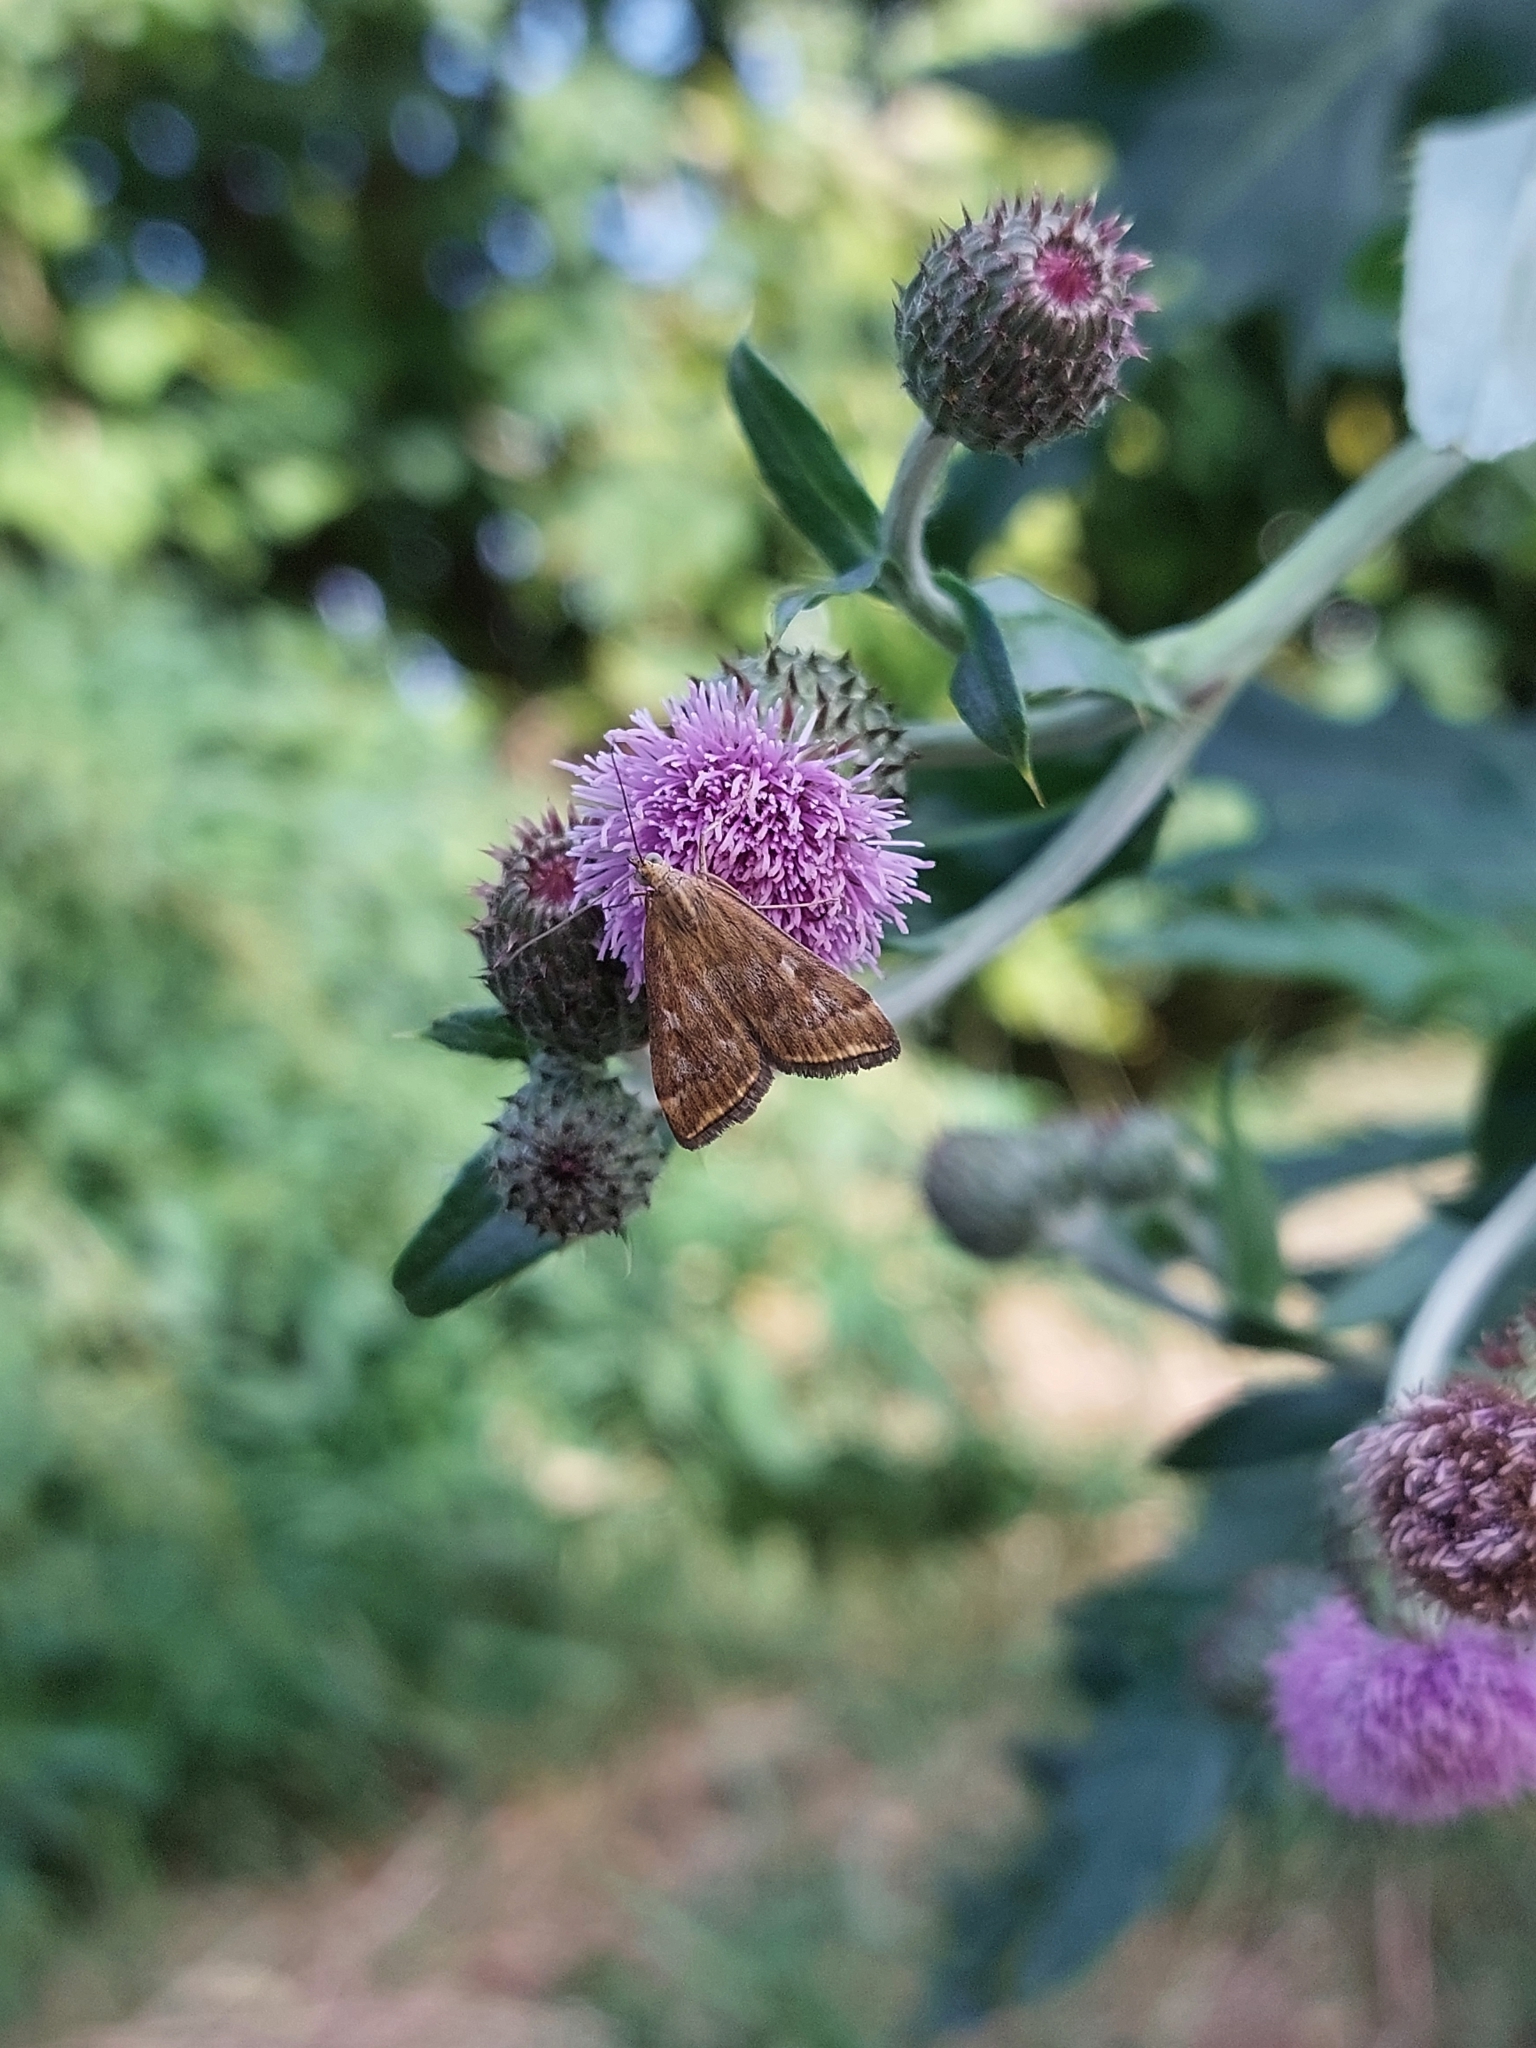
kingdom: Animalia
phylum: Arthropoda
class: Insecta
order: Lepidoptera
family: Crambidae
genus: Loxostege
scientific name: Loxostege sticticalis
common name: Crambid moth
